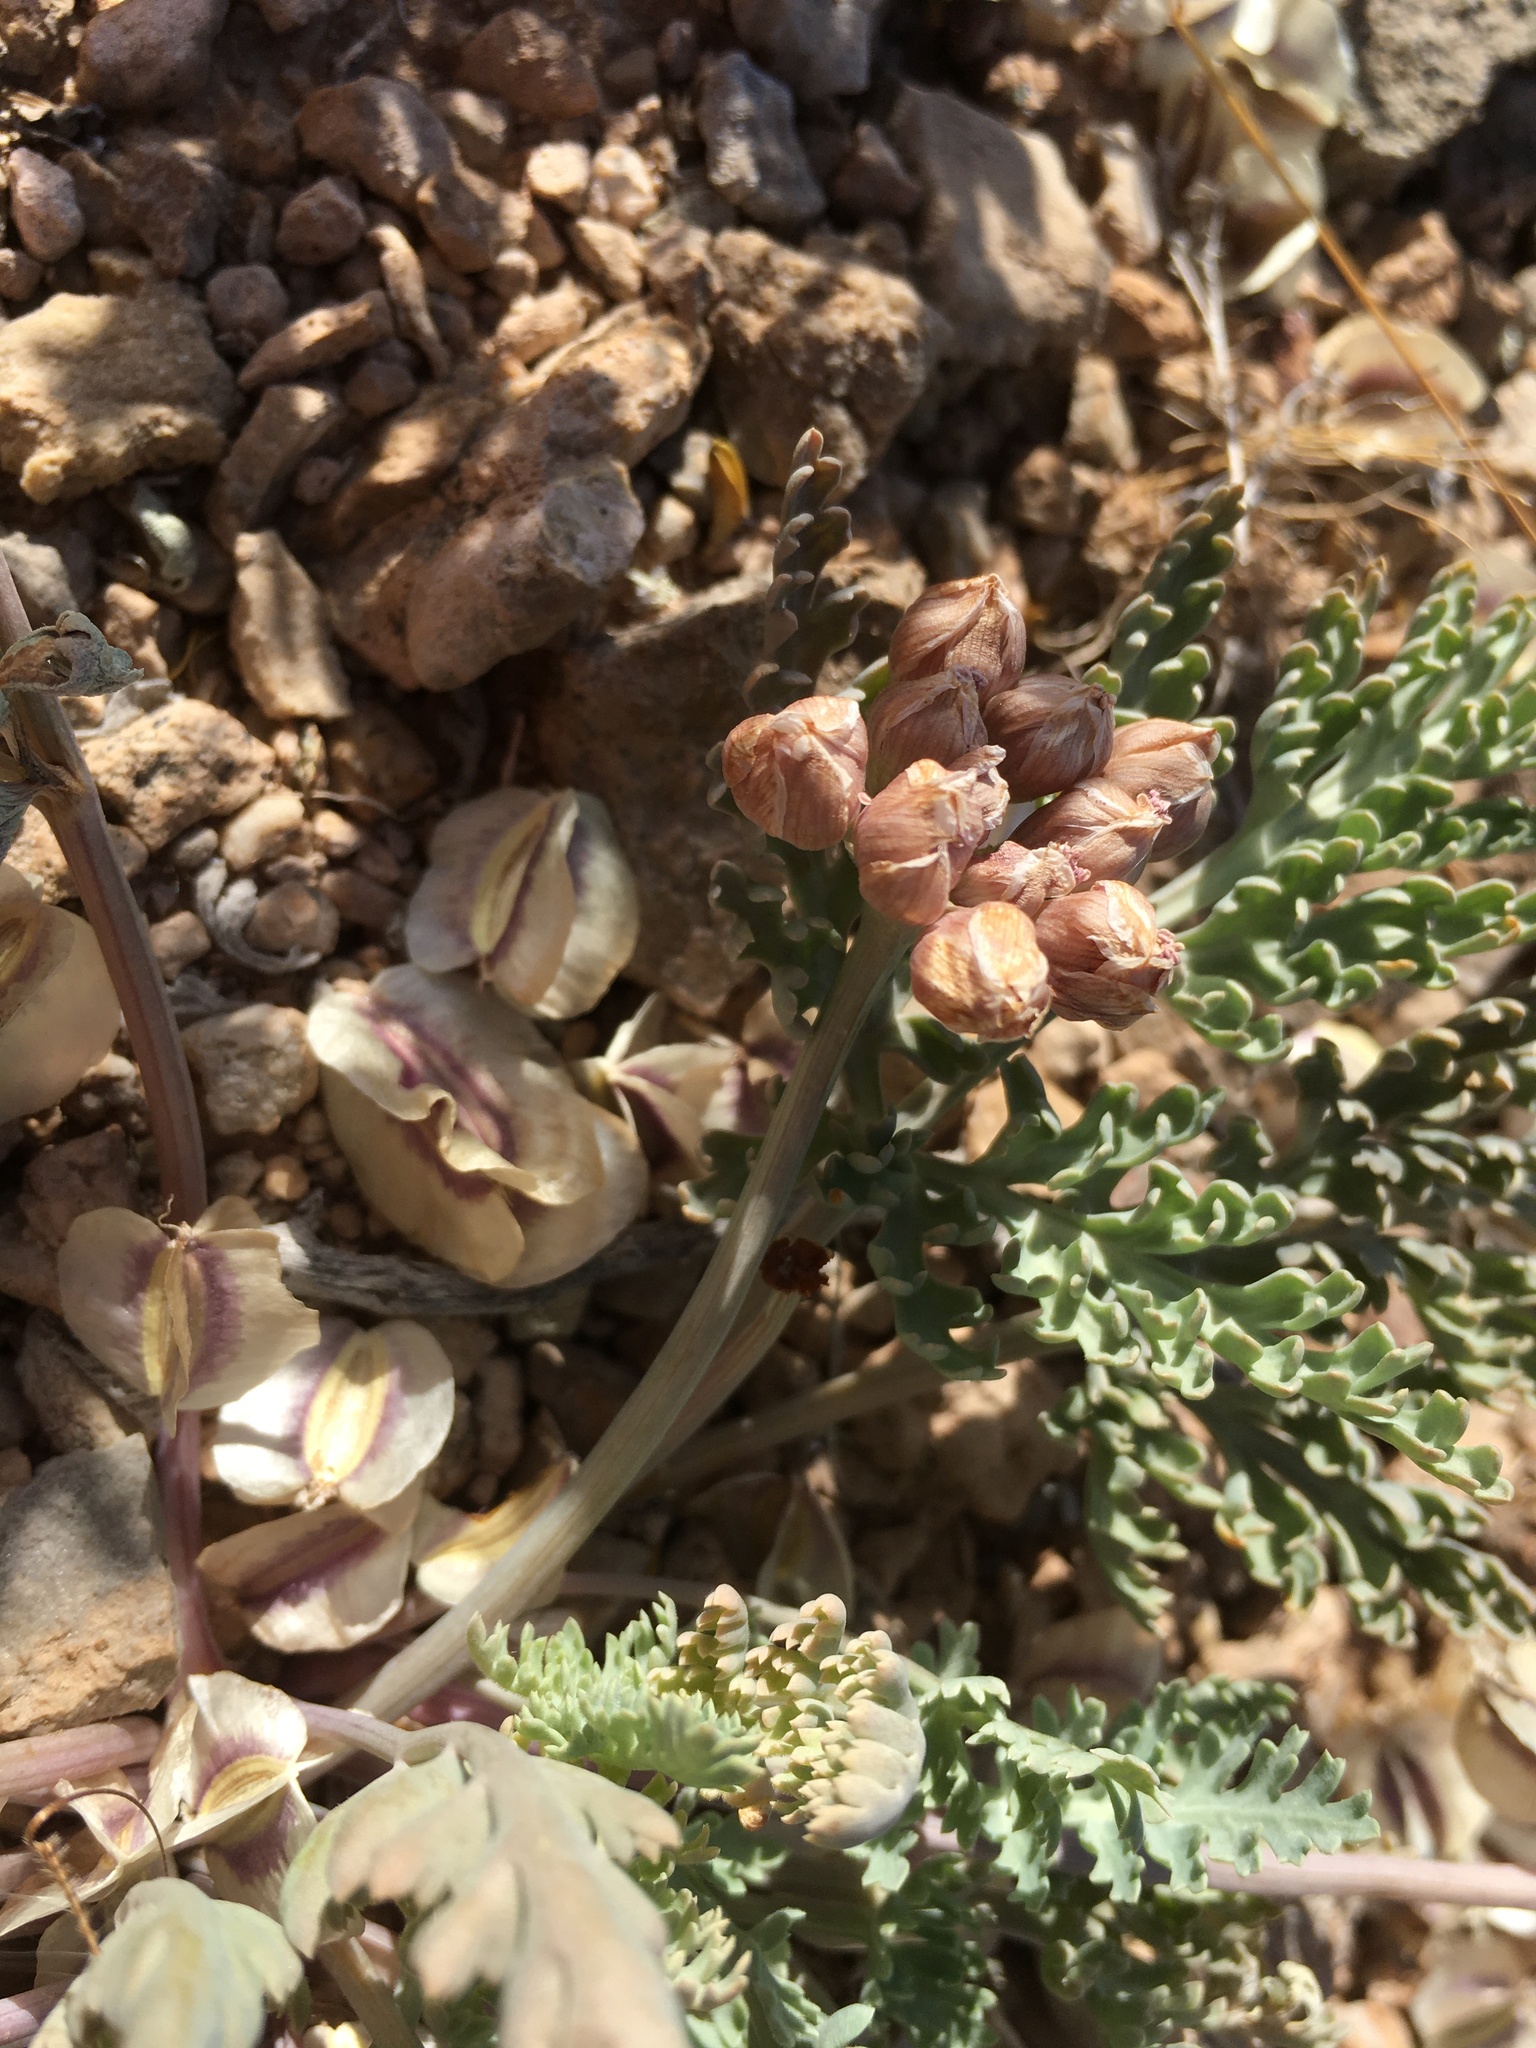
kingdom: Plantae
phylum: Tracheophyta
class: Magnoliopsida
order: Apiales
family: Apiaceae
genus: Vesper
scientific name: Vesper multinervatus
